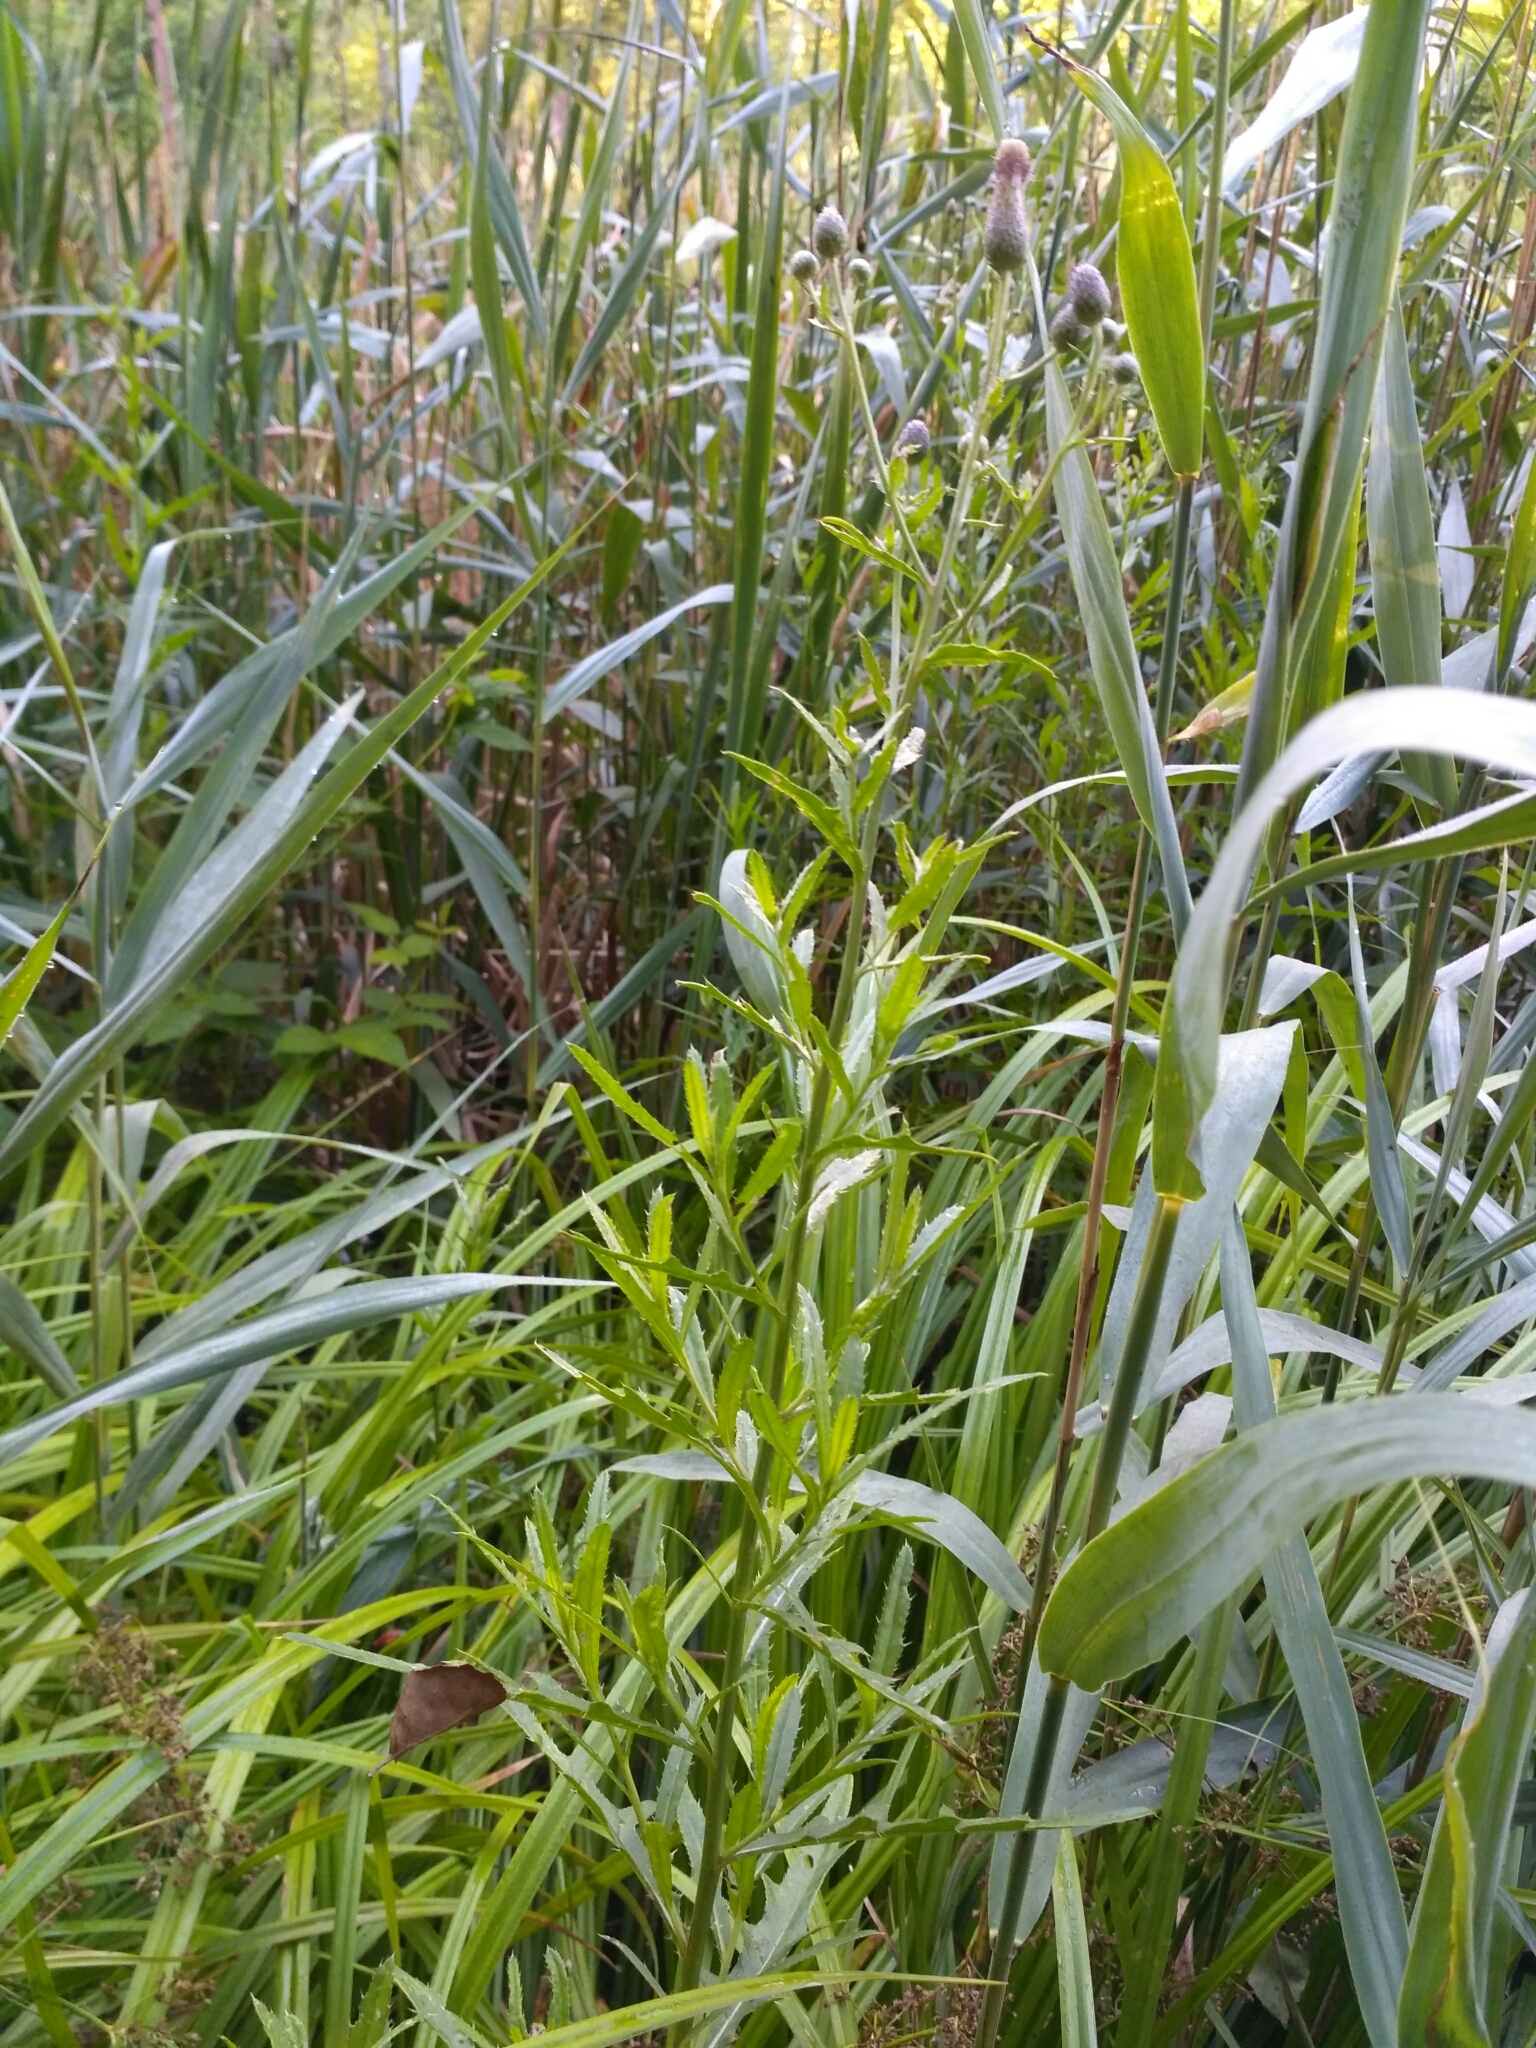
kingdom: Plantae
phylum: Tracheophyta
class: Magnoliopsida
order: Asterales
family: Asteraceae
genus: Cirsium
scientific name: Cirsium arvense
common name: Creeping thistle
